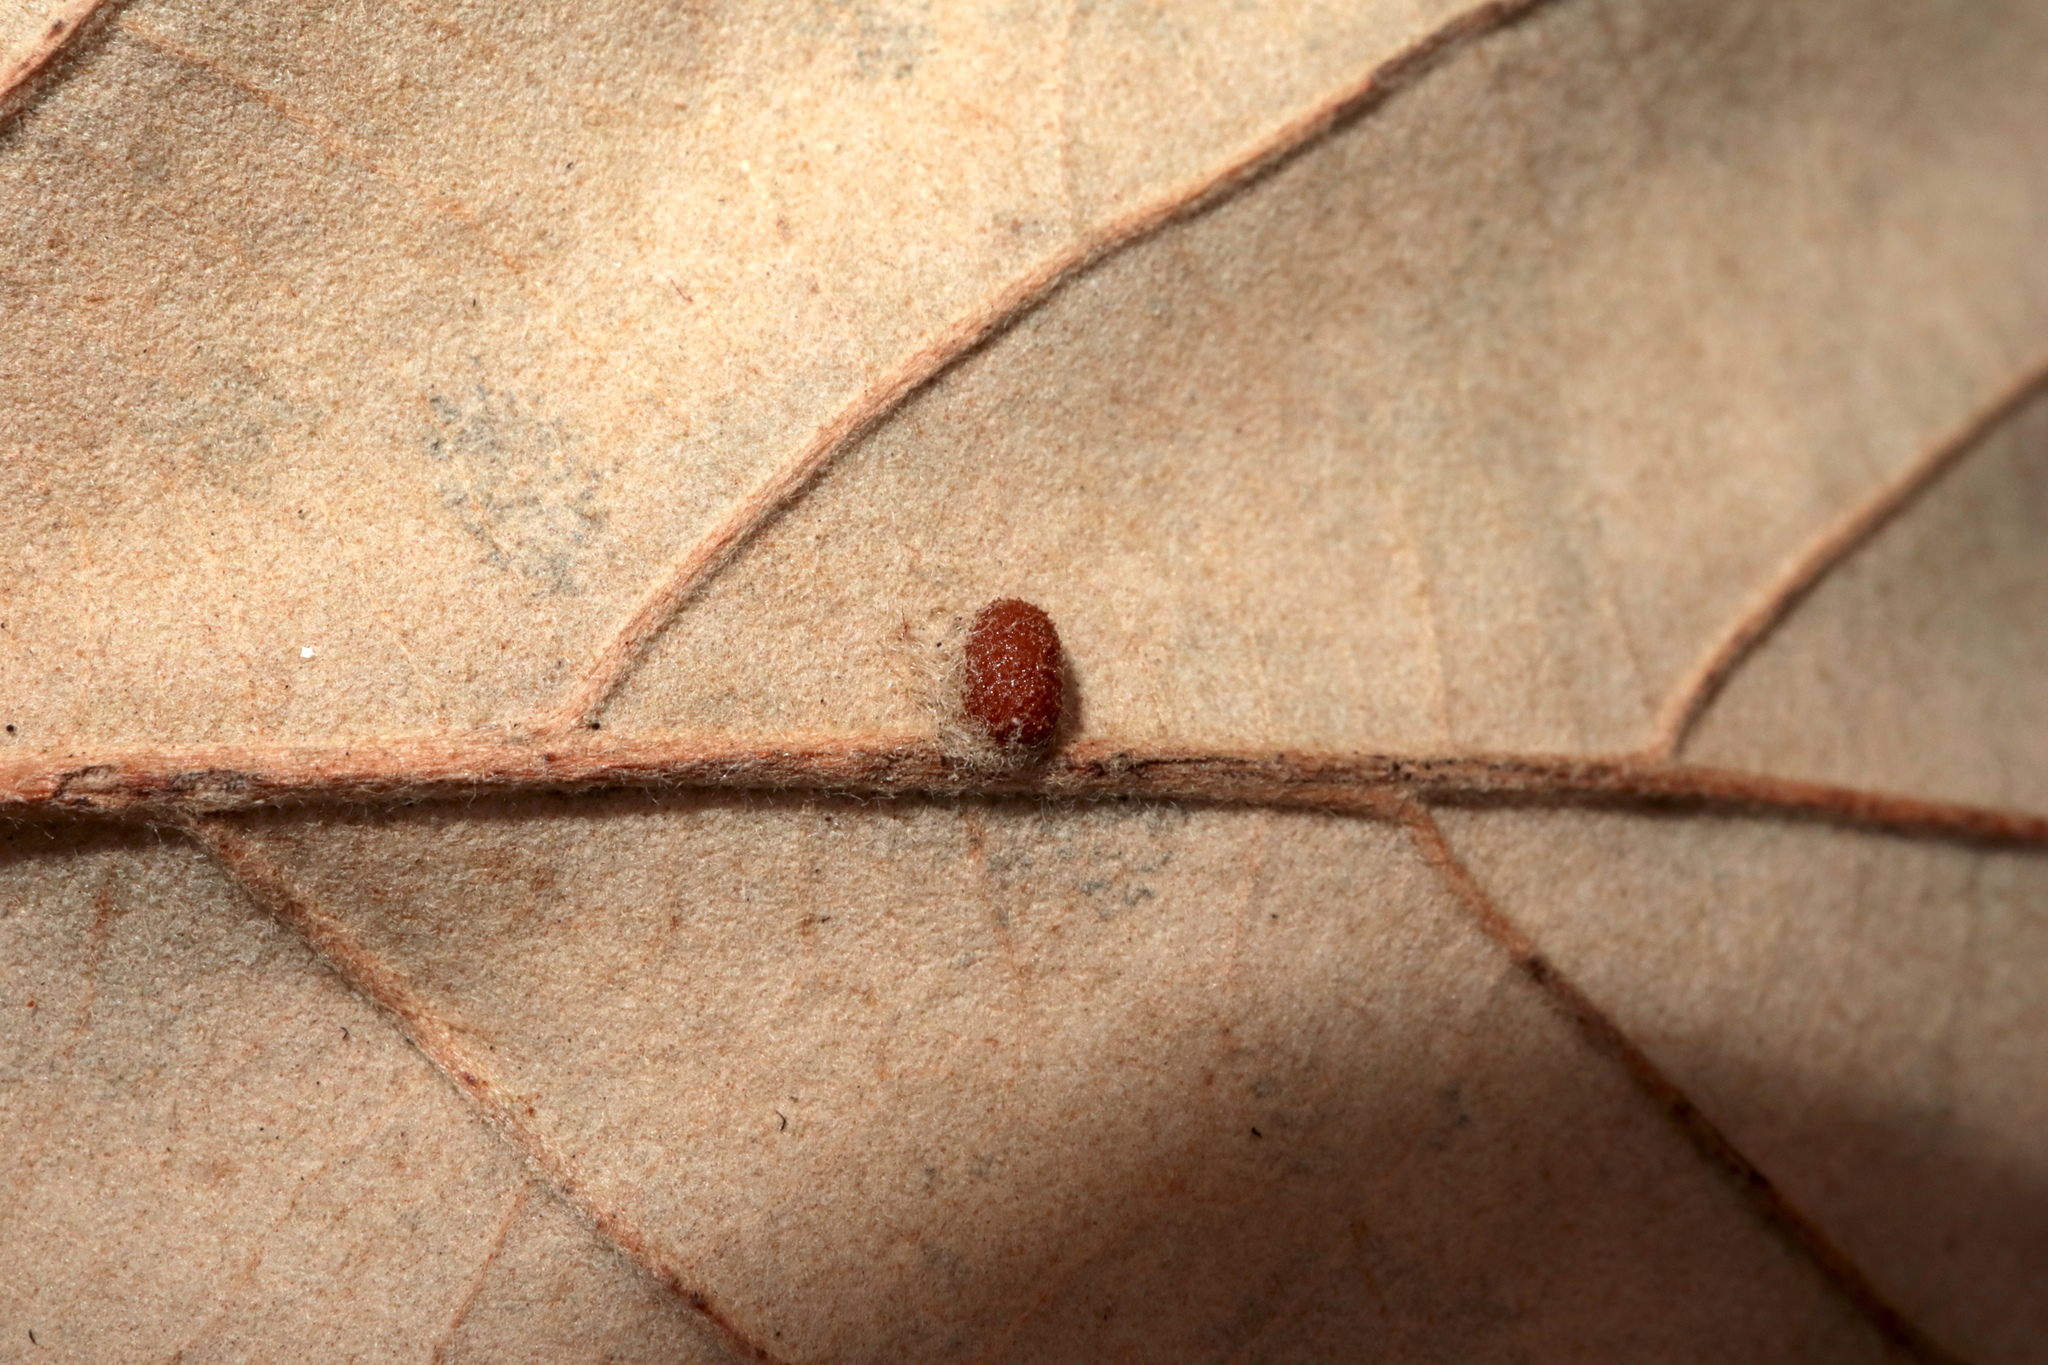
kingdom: Animalia
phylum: Arthropoda
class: Insecta
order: Hymenoptera
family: Cynipidae
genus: Andricus
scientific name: Andricus Druon ignotum
